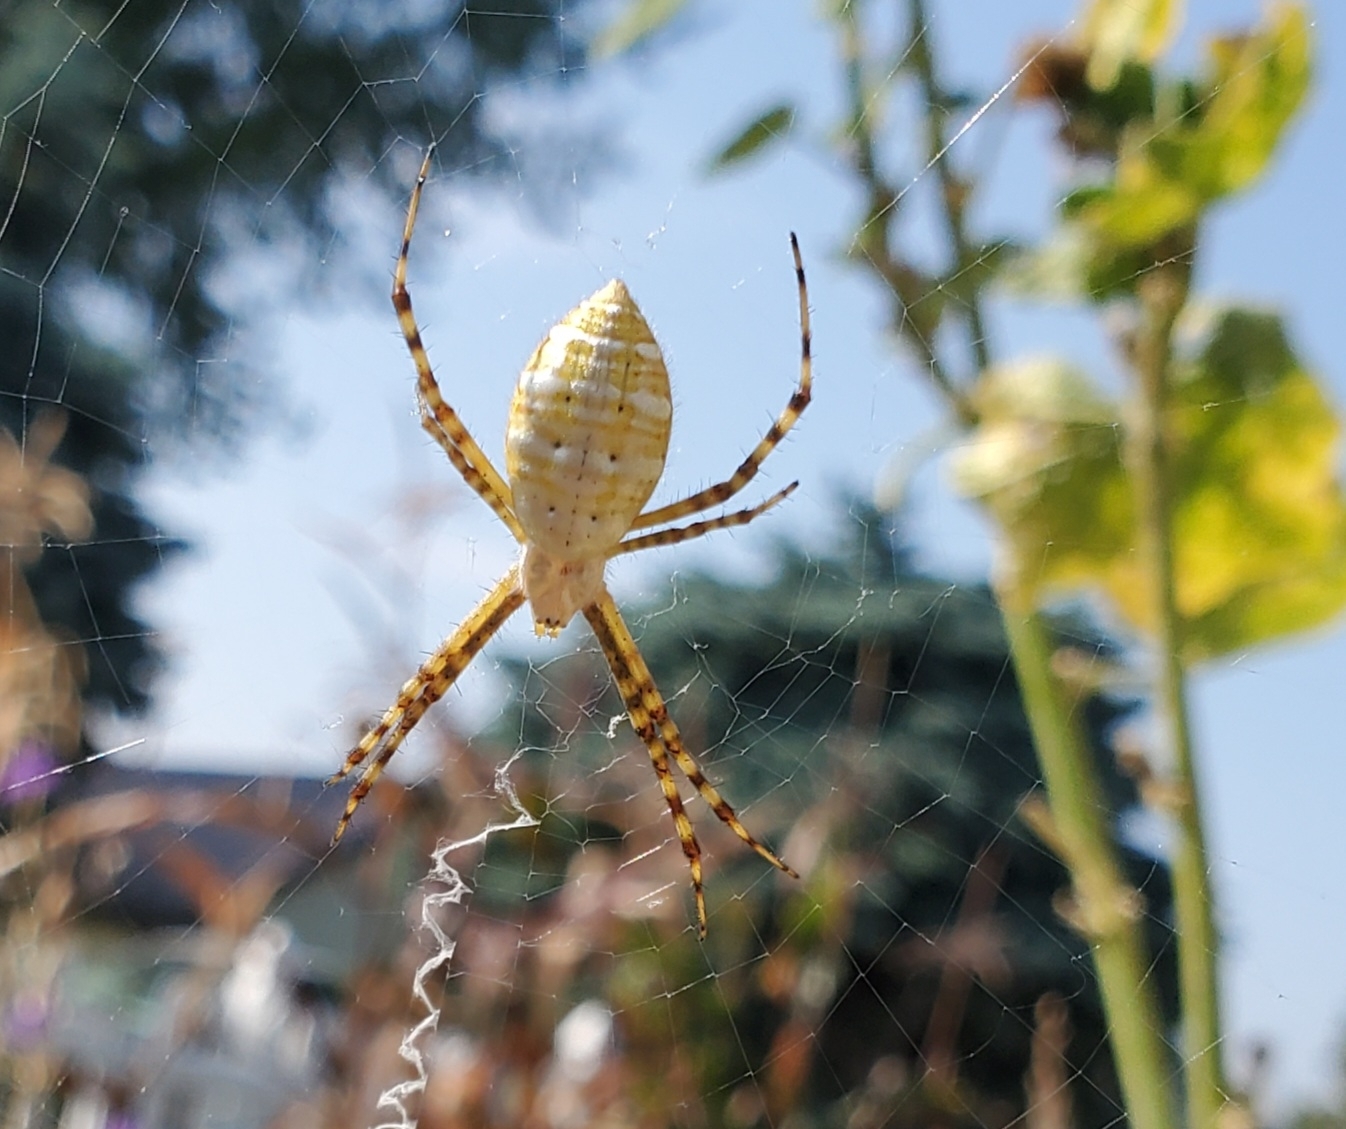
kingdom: Animalia
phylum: Arthropoda
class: Arachnida
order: Araneae
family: Araneidae
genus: Argiope
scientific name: Argiope trifasciata
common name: Banded garden spider
